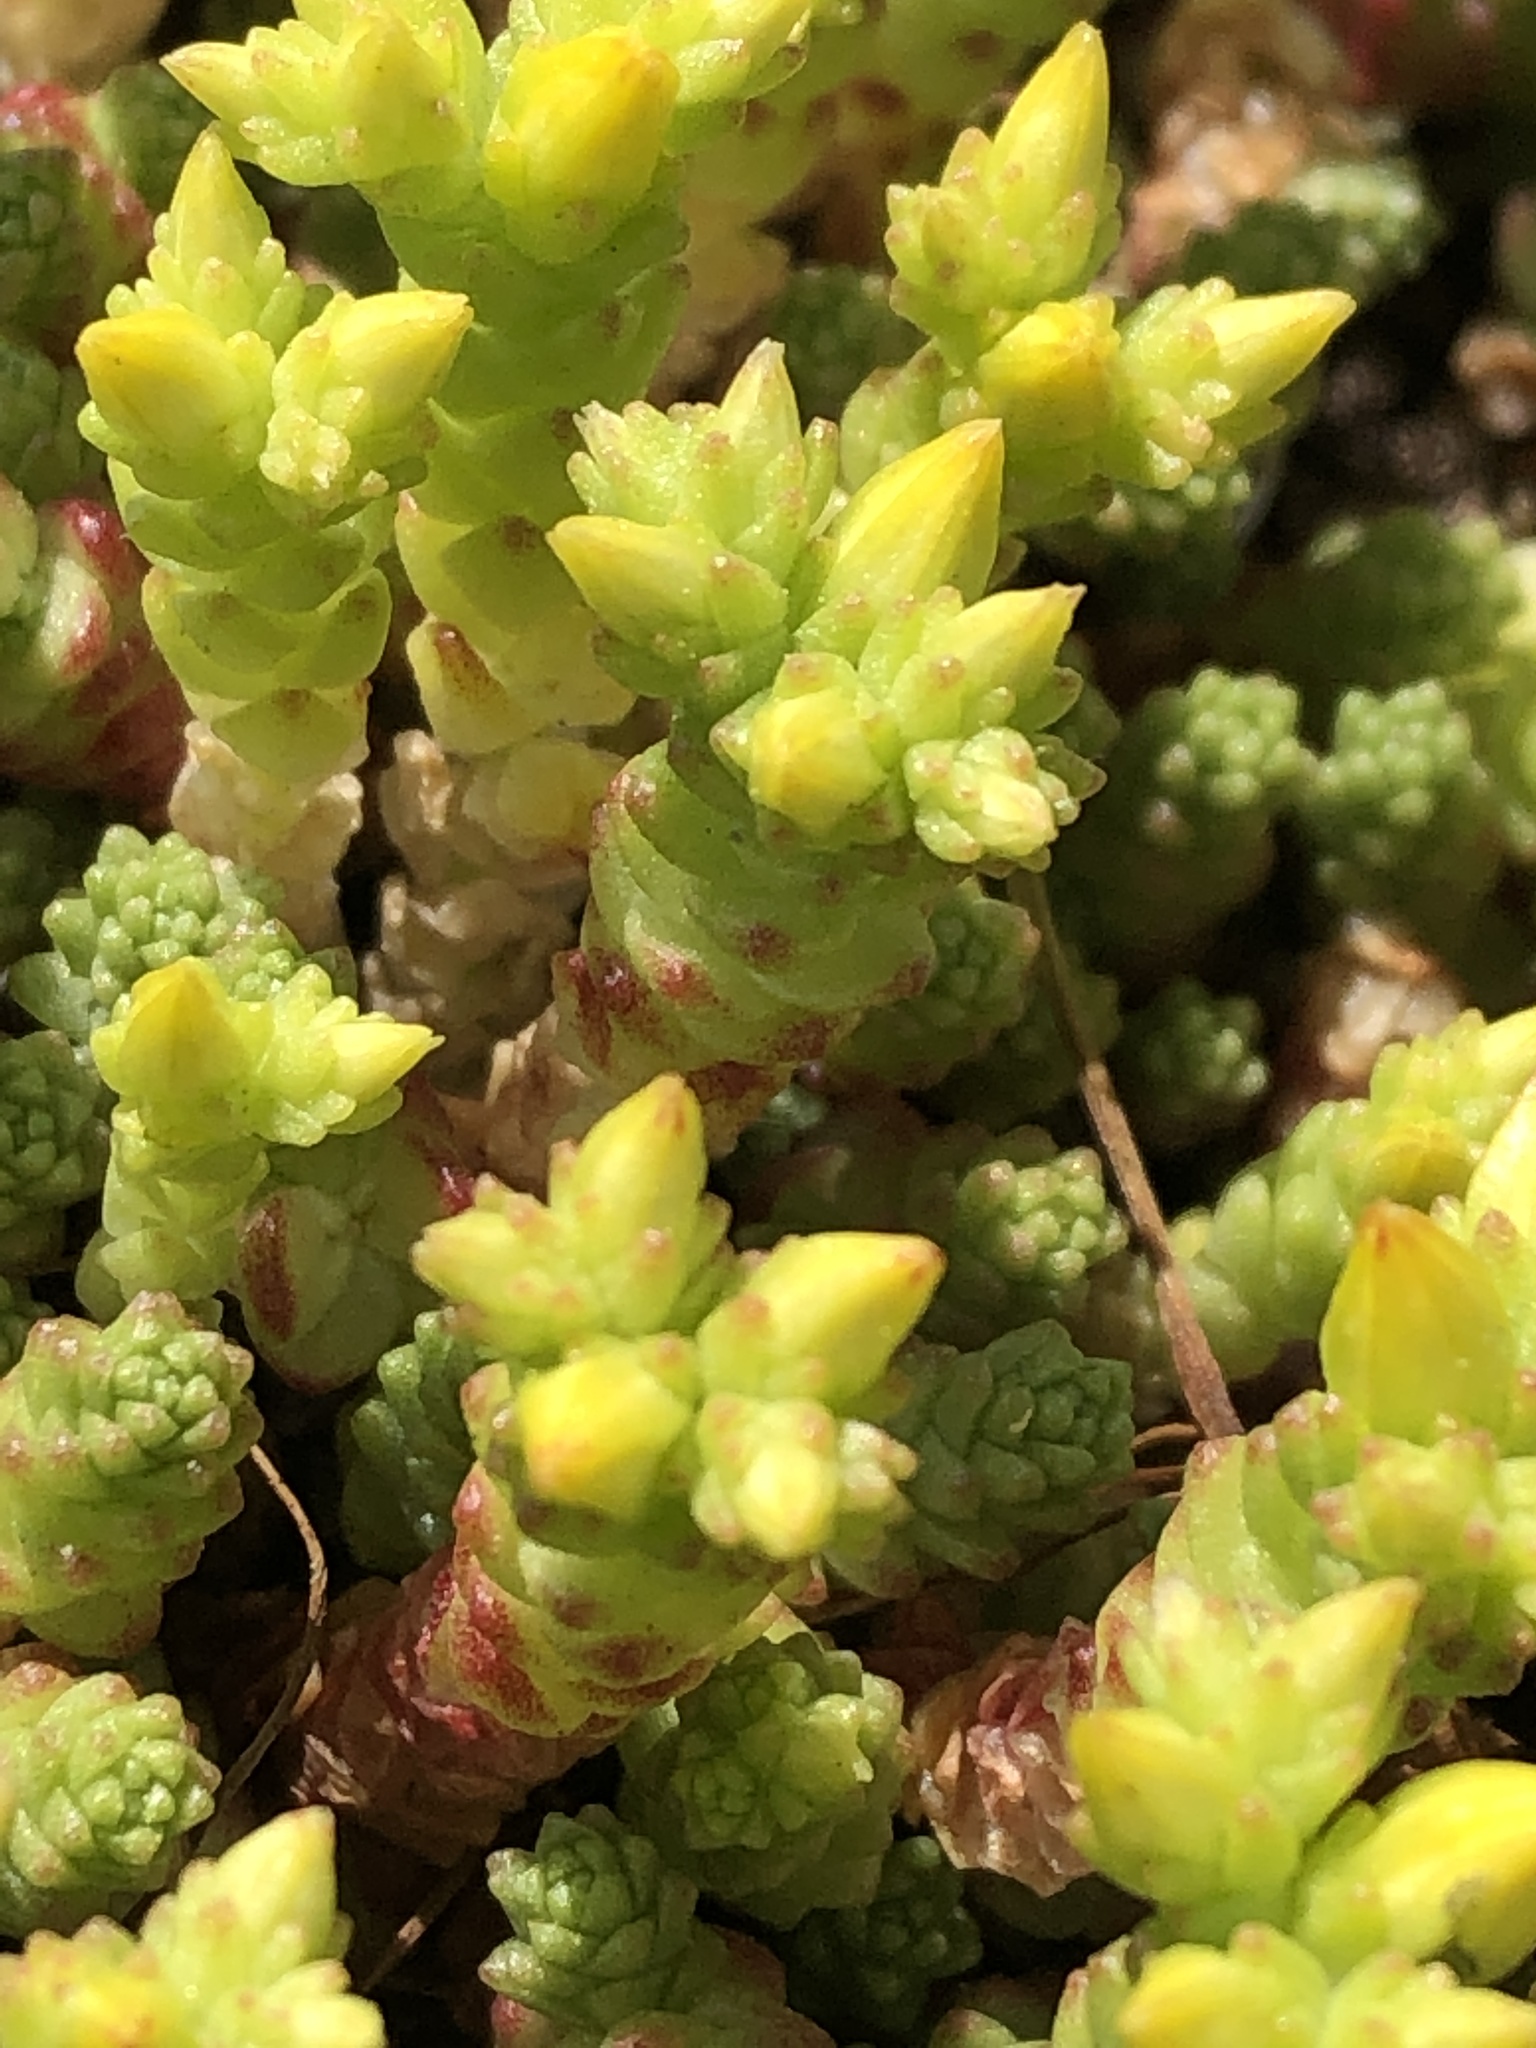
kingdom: Plantae
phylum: Tracheophyta
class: Magnoliopsida
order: Saxifragales
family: Crassulaceae
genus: Sedum
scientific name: Sedum acre
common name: Biting stonecrop
